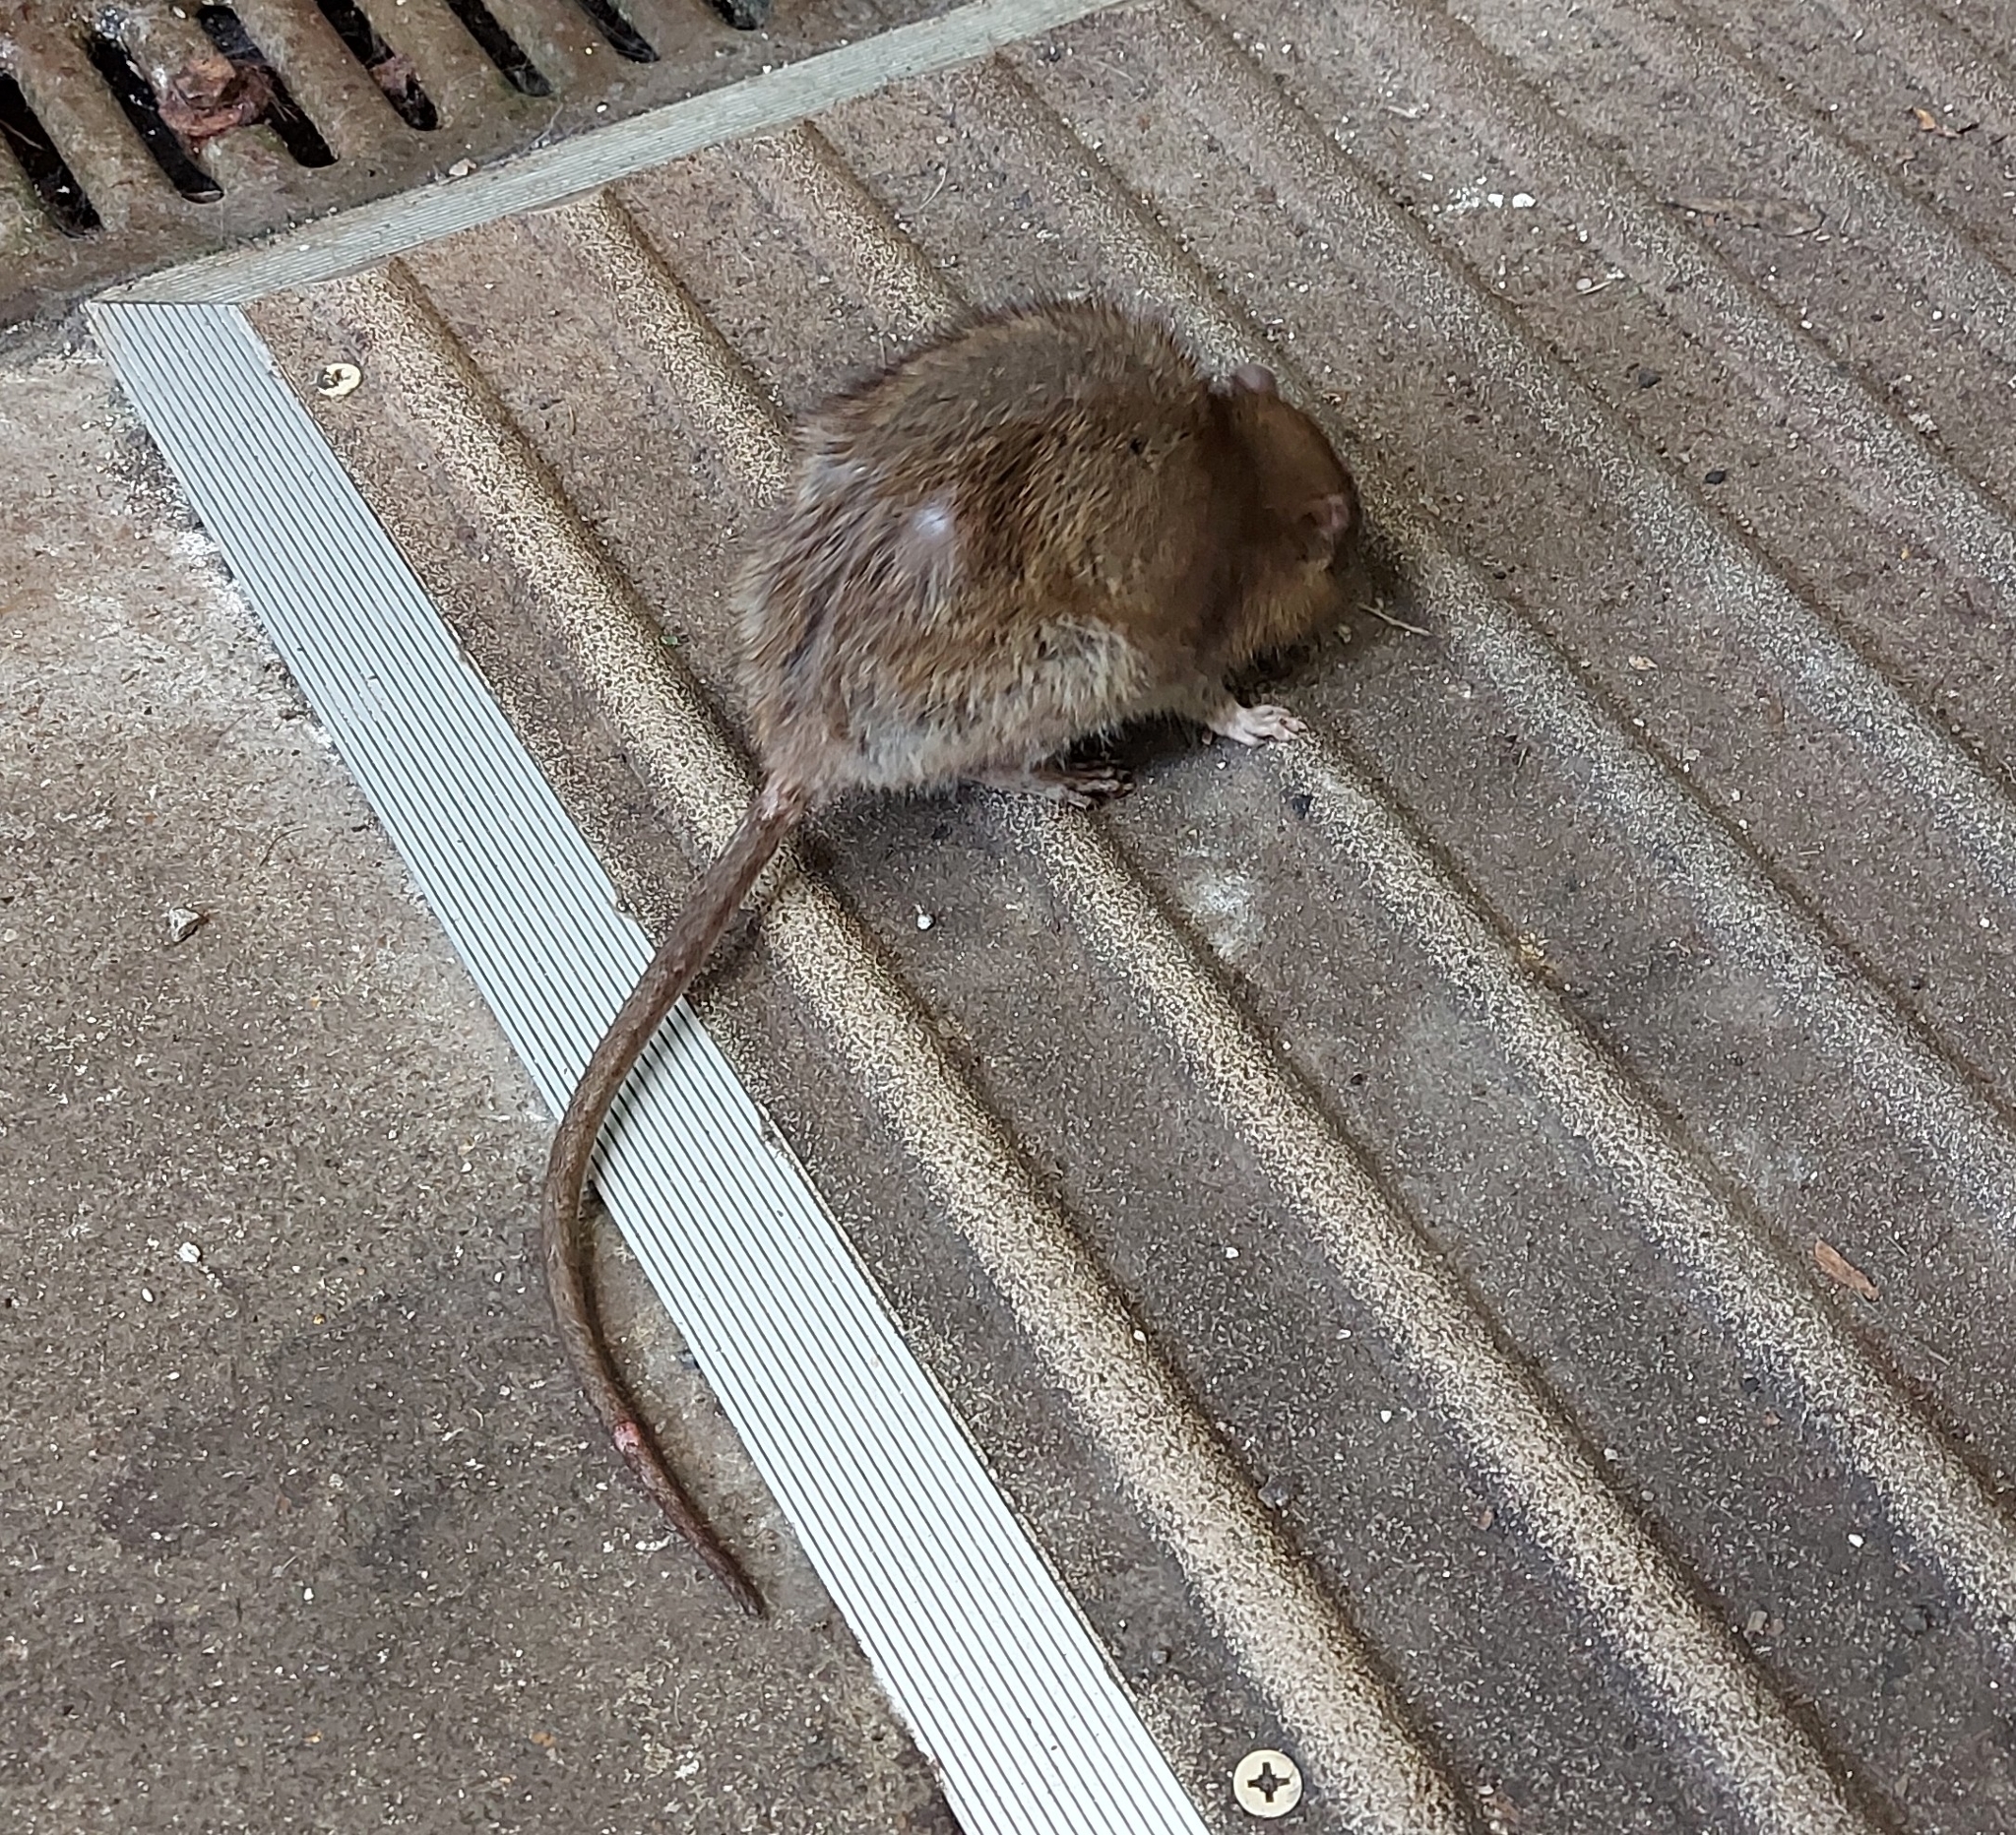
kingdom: Animalia
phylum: Chordata
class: Mammalia
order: Rodentia
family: Muridae
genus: Rattus
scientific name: Rattus norvegicus
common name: Brown rat
